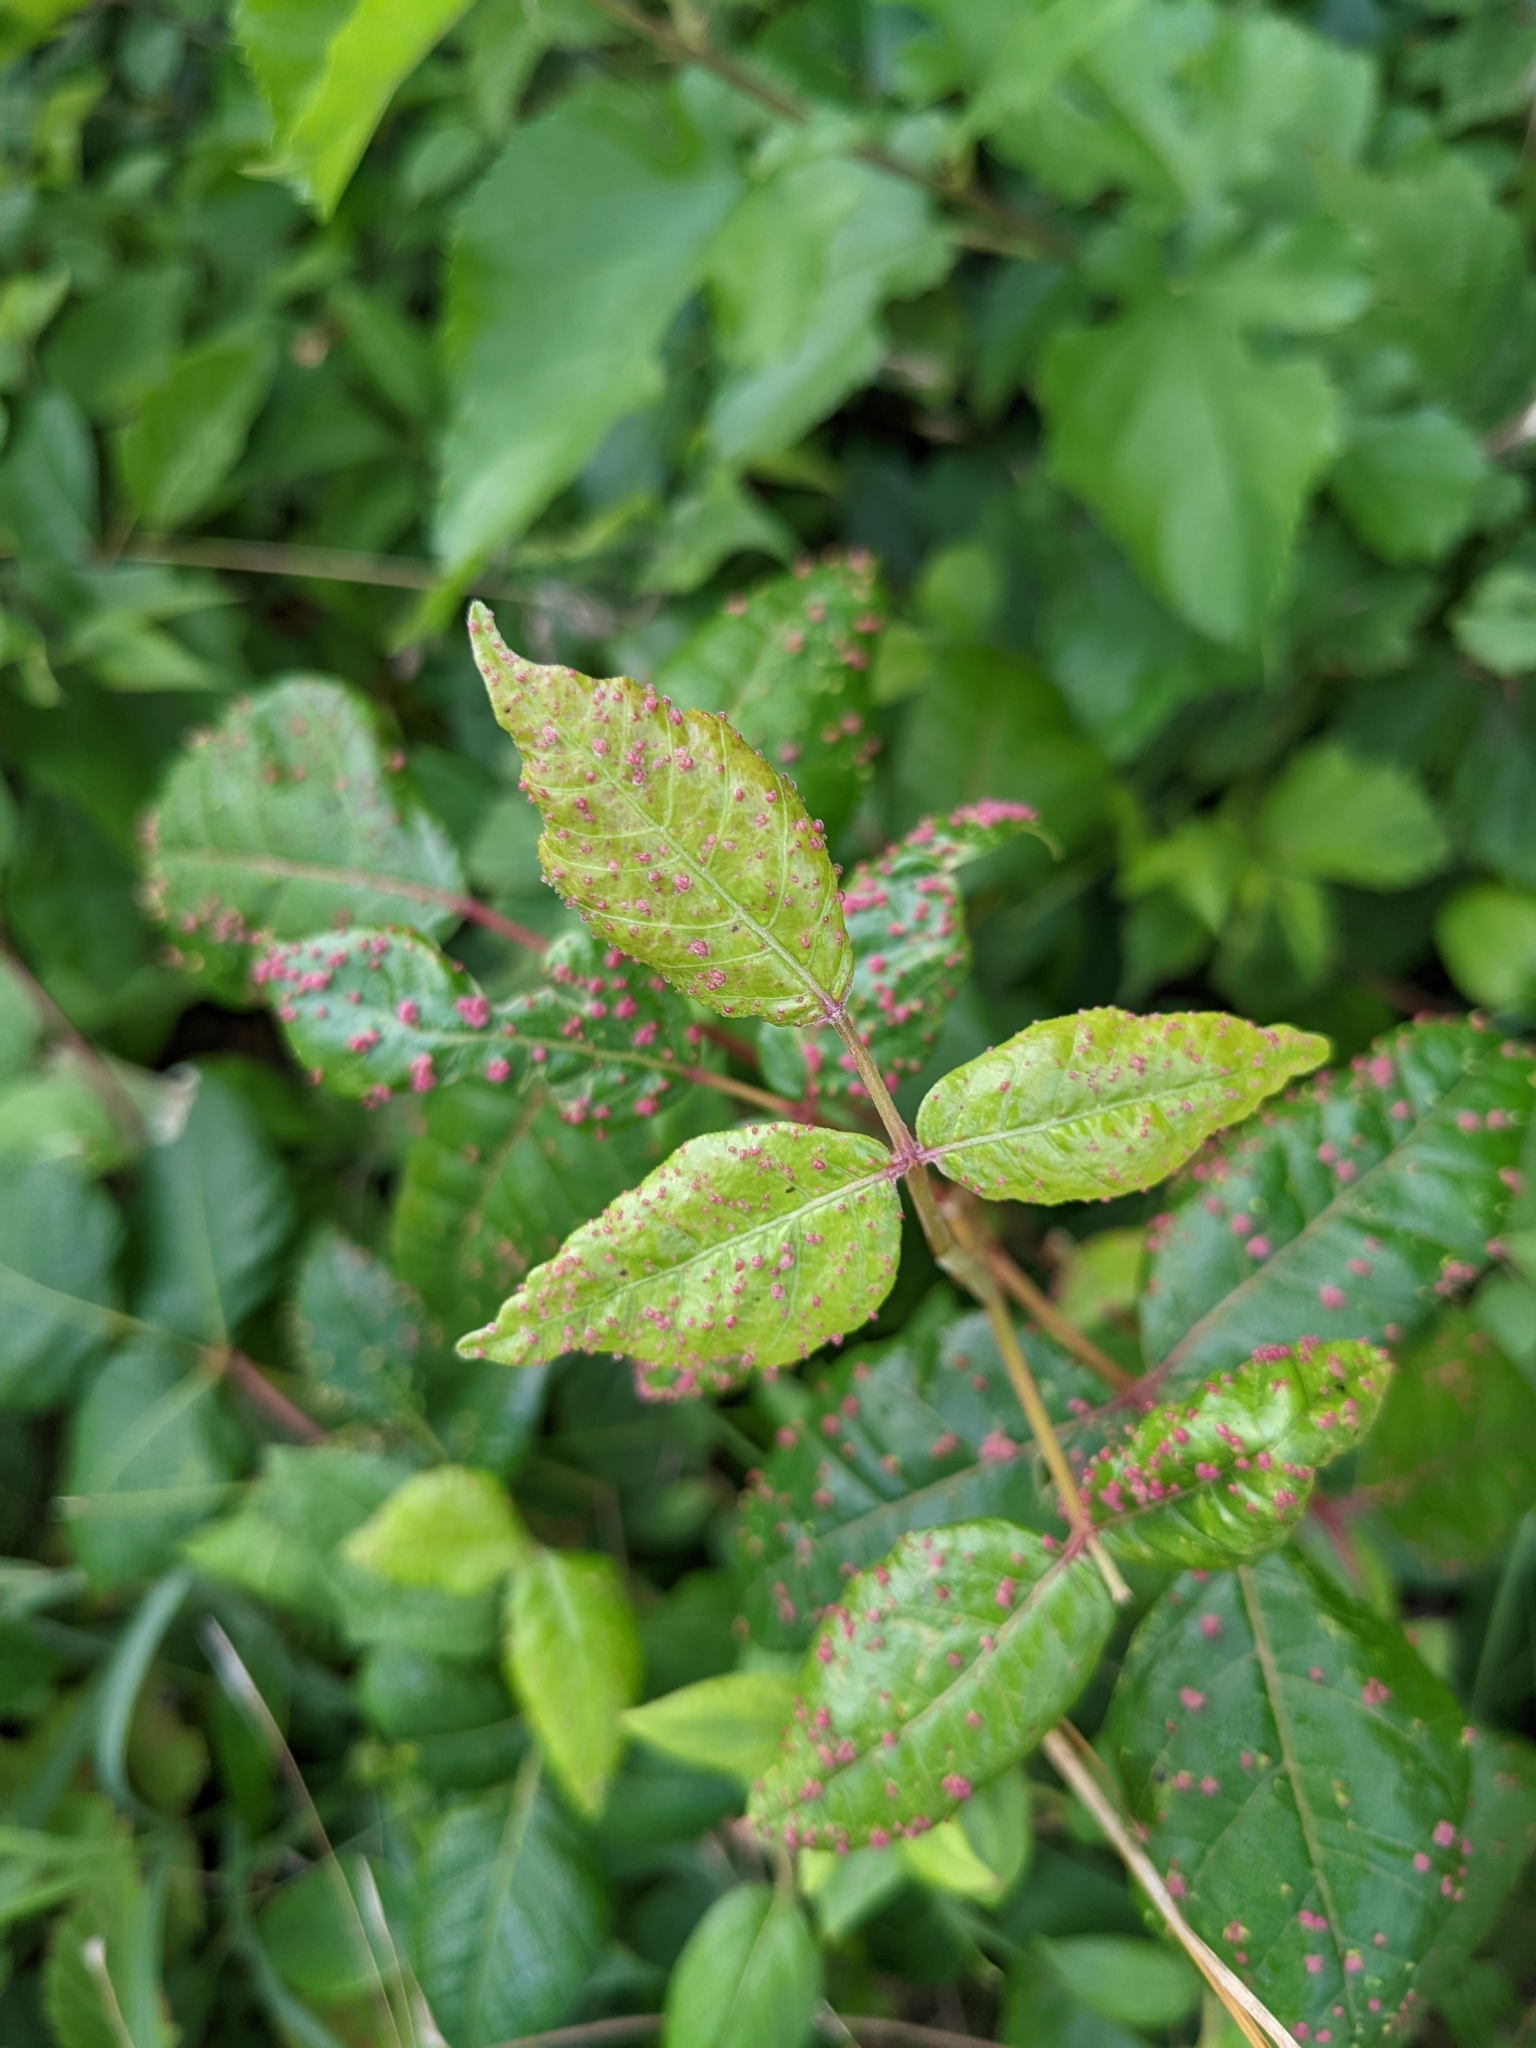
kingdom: Animalia
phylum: Arthropoda
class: Arachnida
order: Trombidiformes
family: Eriophyidae
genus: Aculops
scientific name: Aculops
